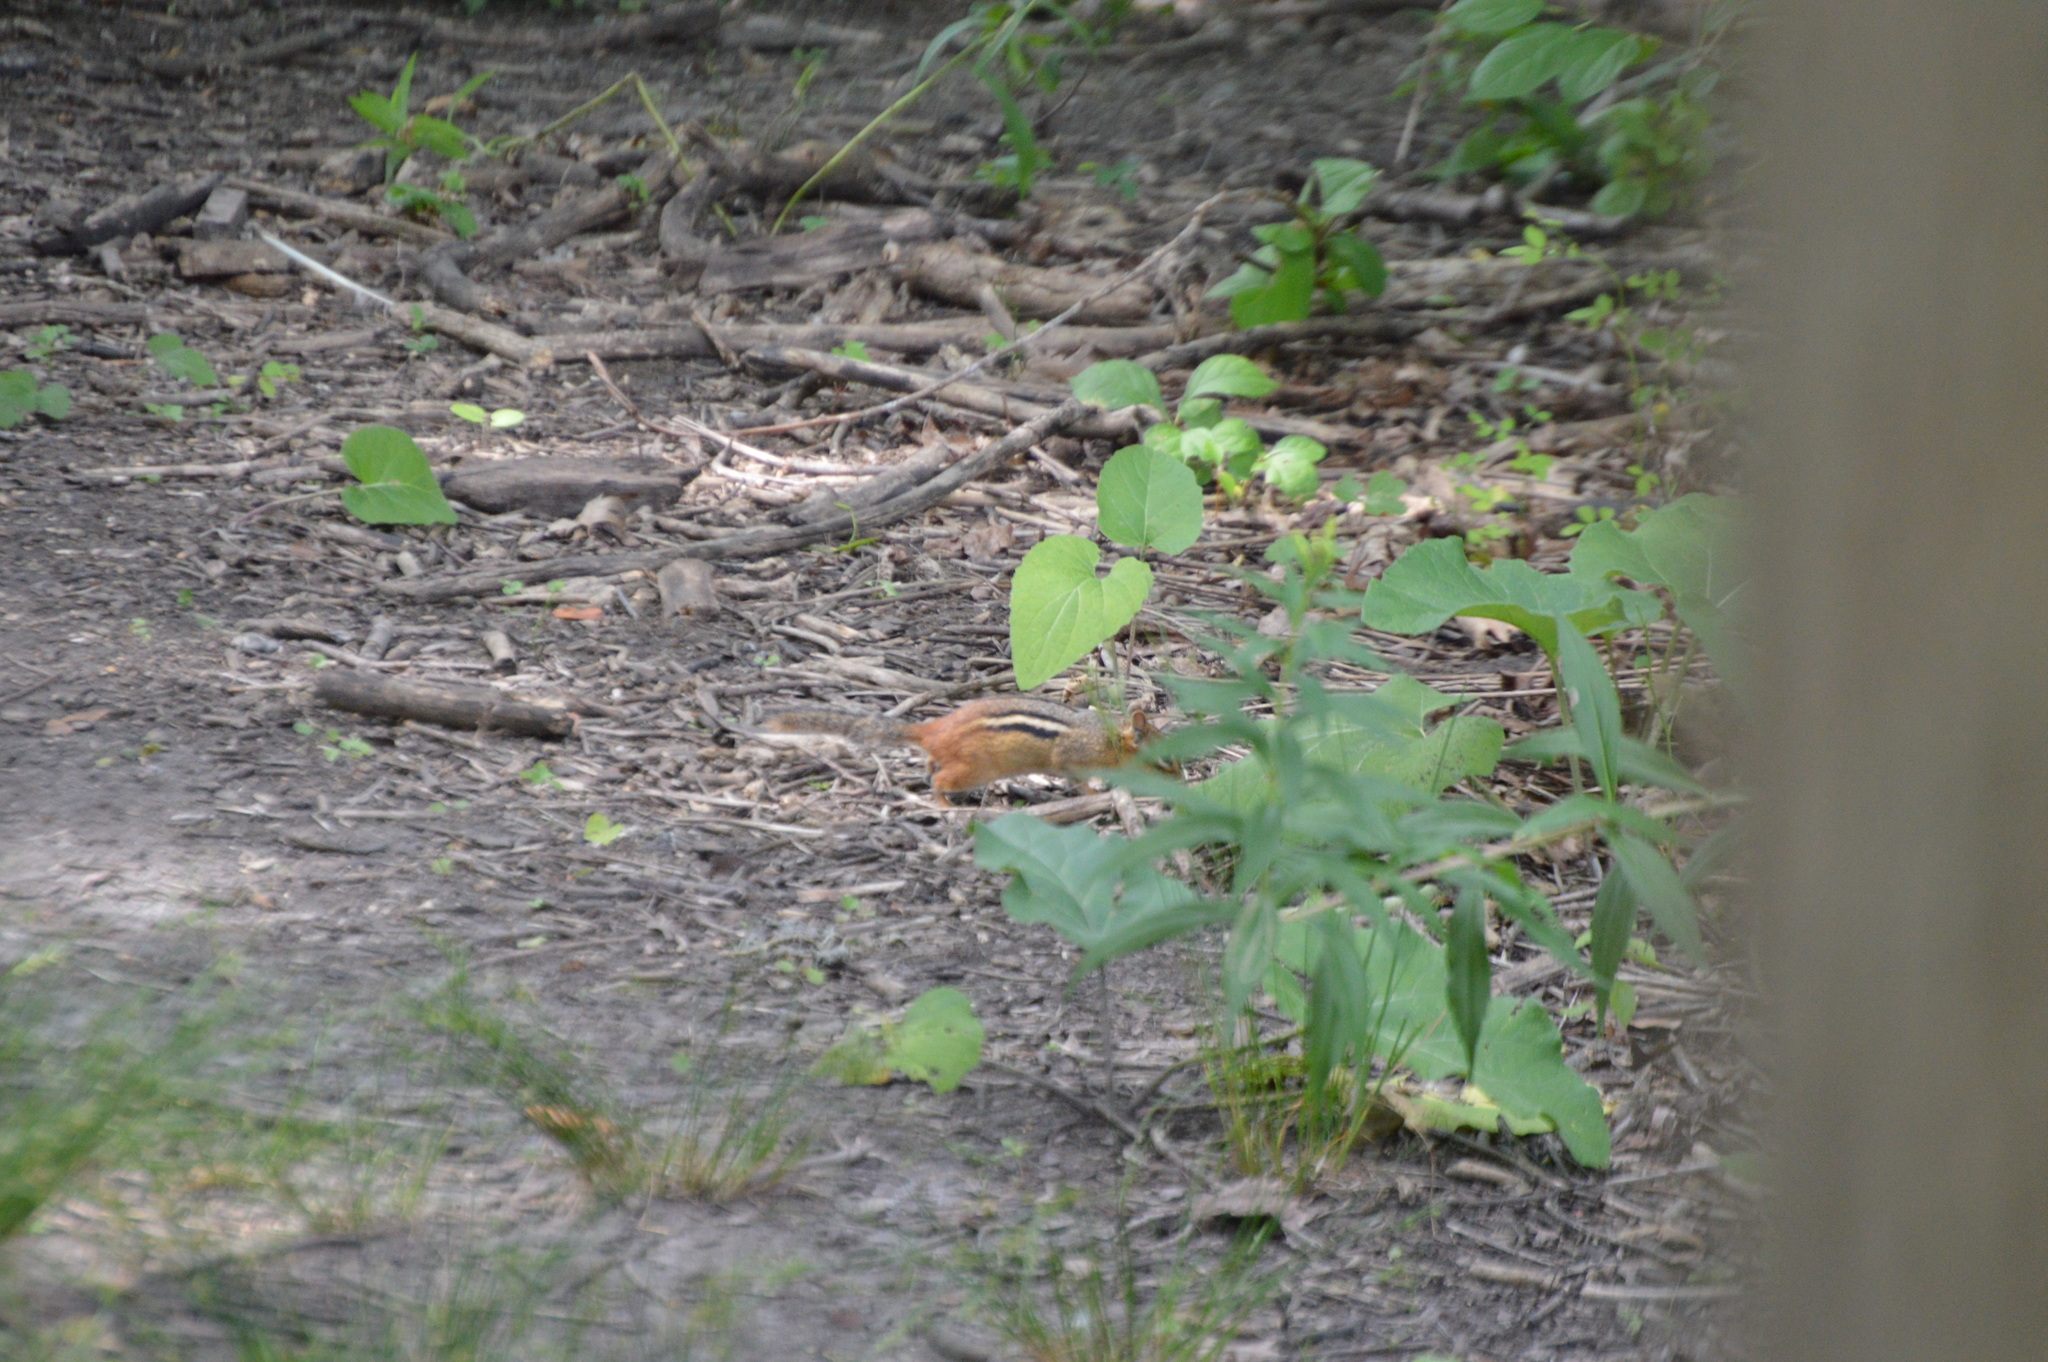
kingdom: Animalia
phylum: Chordata
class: Mammalia
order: Rodentia
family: Sciuridae
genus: Tamias
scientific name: Tamias striatus
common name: Eastern chipmunk
